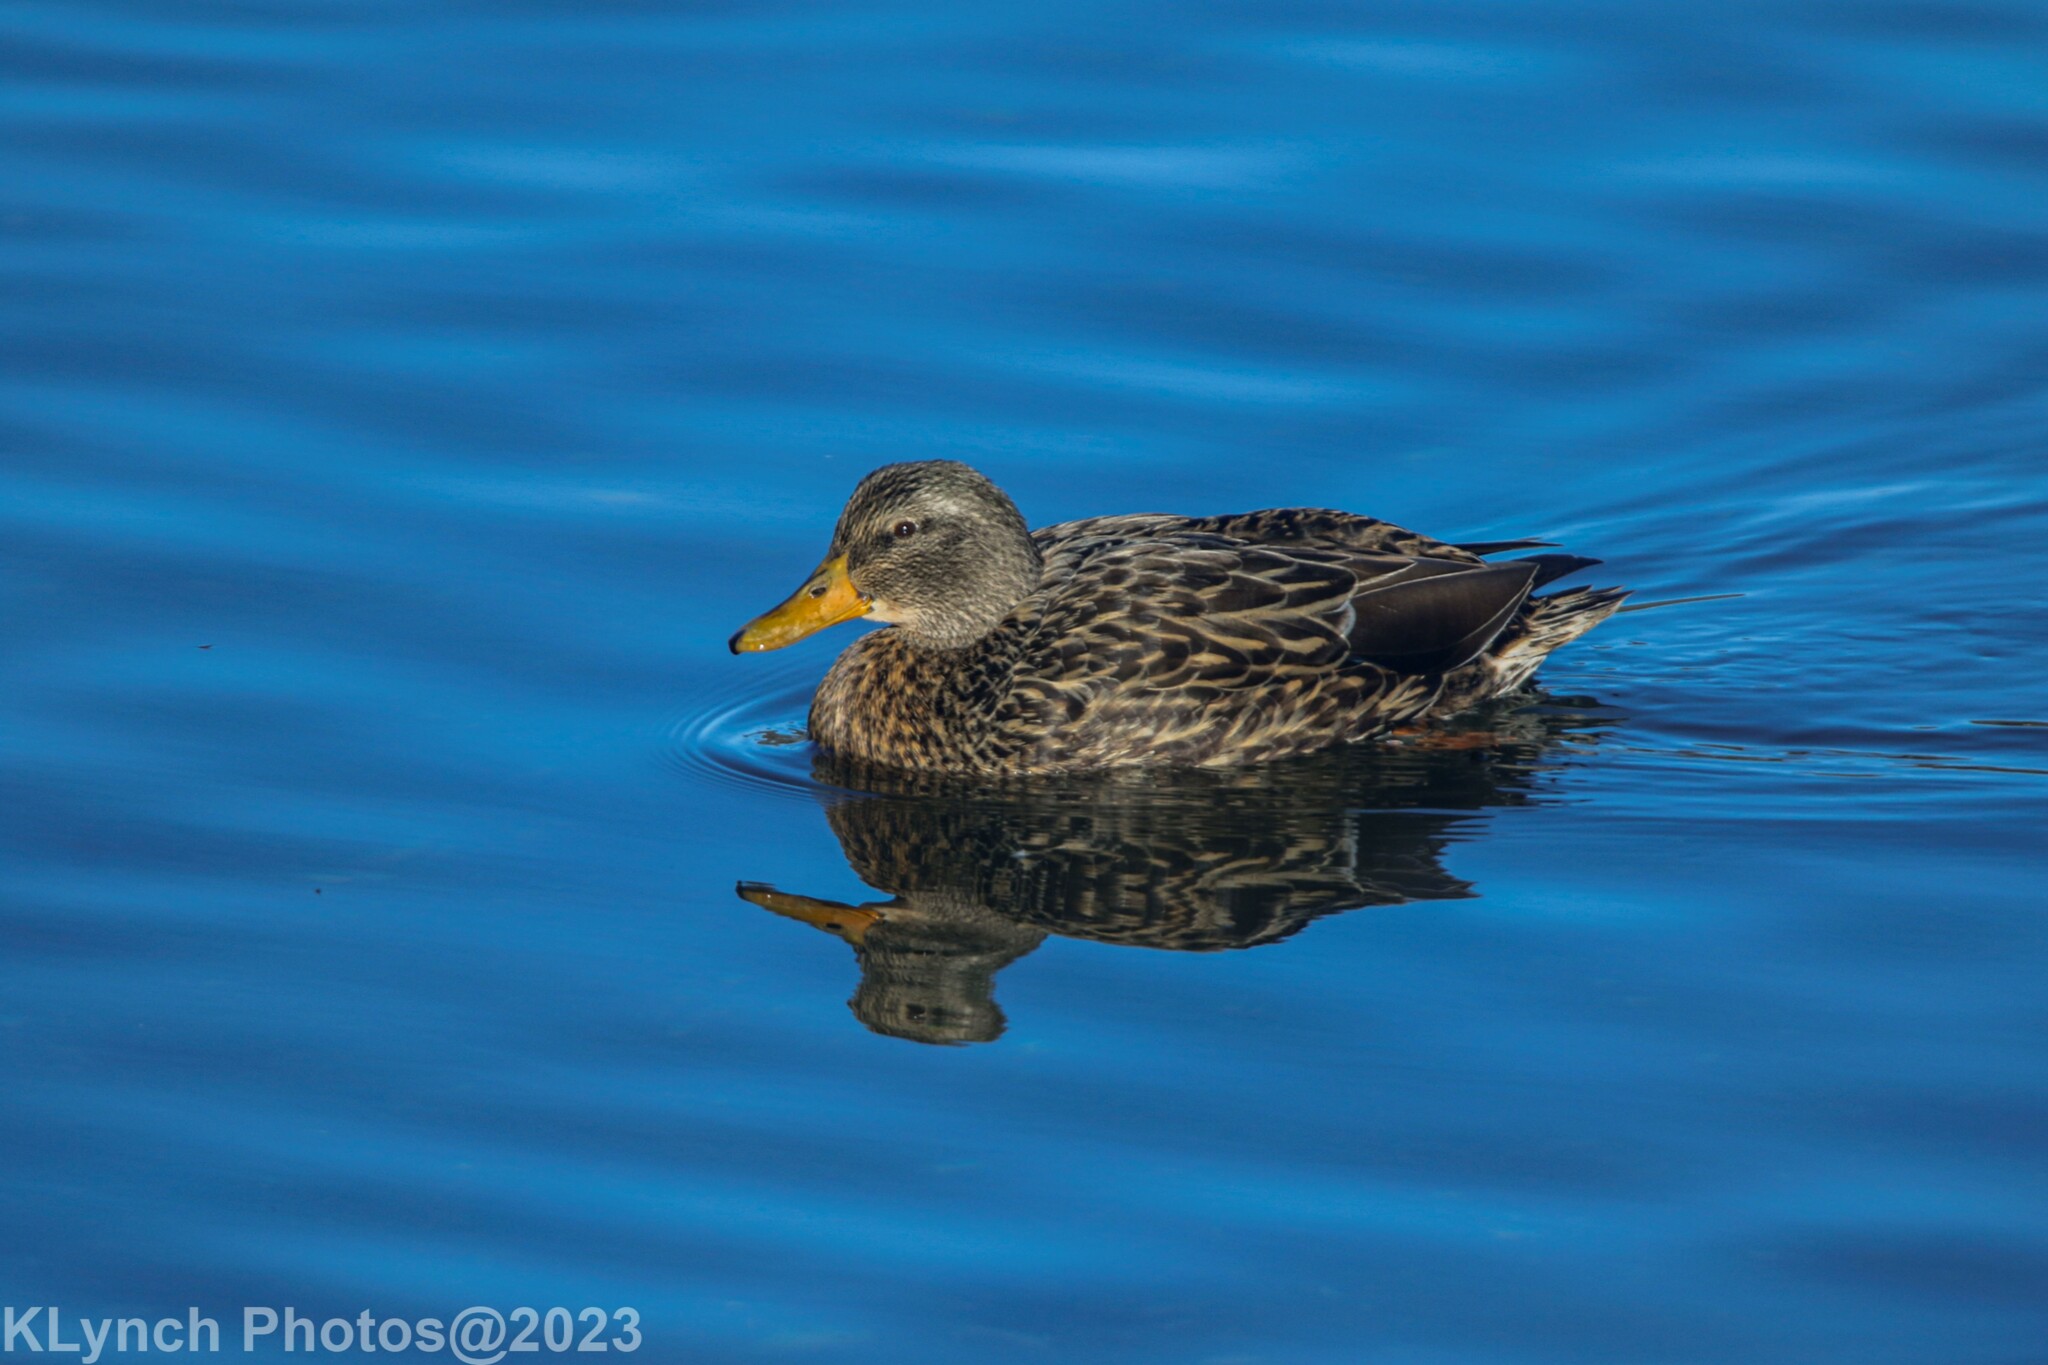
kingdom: Animalia
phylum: Chordata
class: Aves
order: Anseriformes
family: Anatidae
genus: Anas
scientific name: Anas platyrhynchos
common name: Mallard
